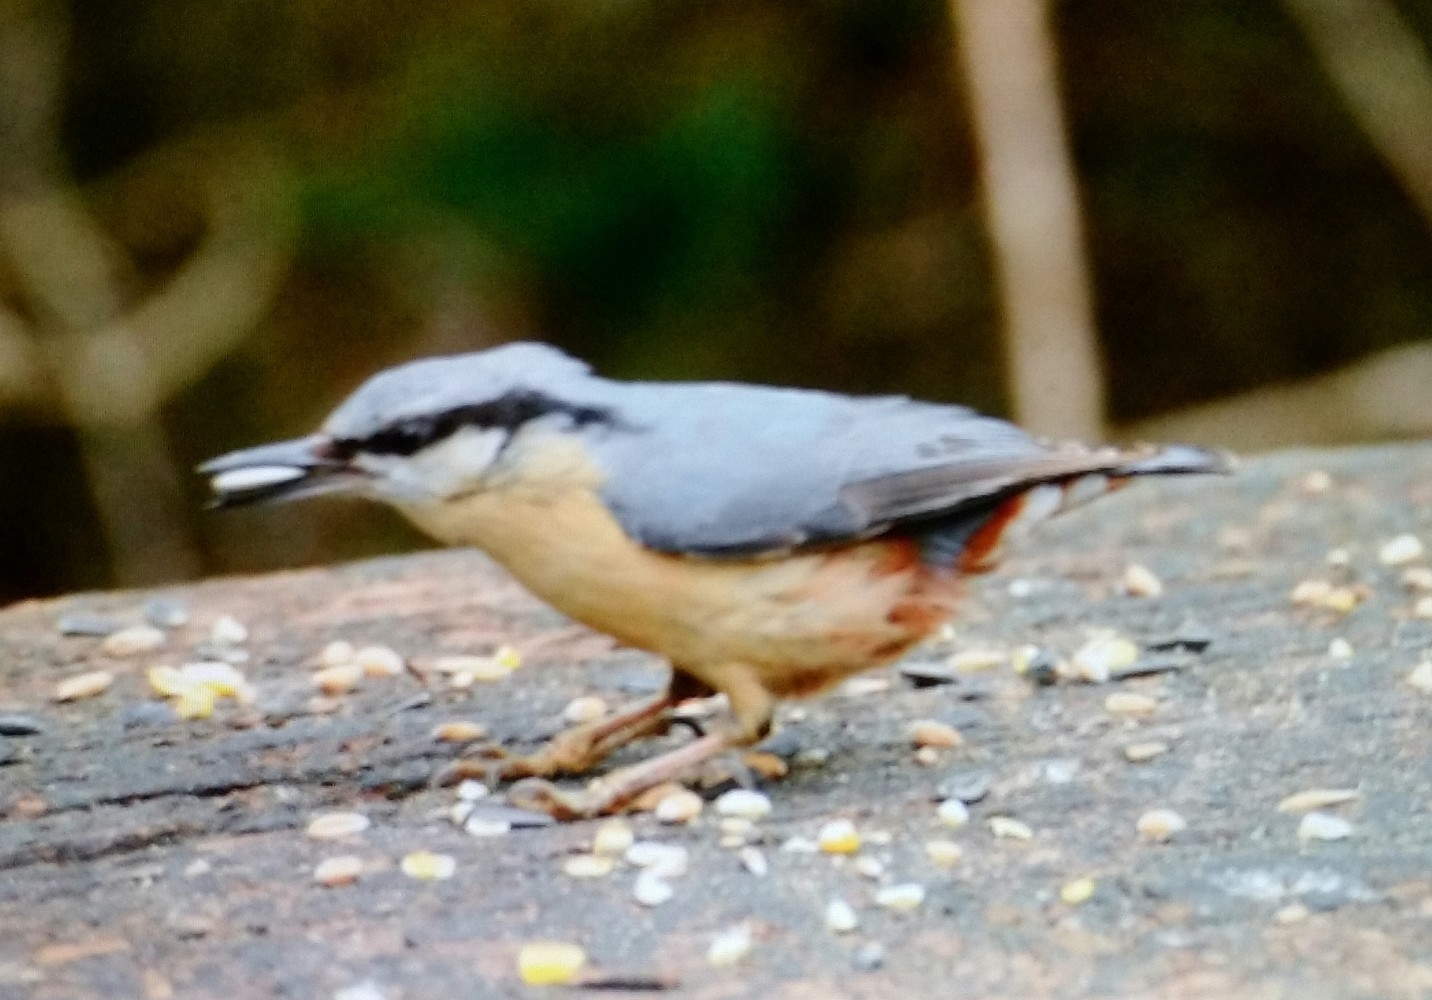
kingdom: Animalia
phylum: Chordata
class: Aves
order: Passeriformes
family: Sittidae
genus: Sitta
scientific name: Sitta europaea
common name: Eurasian nuthatch
